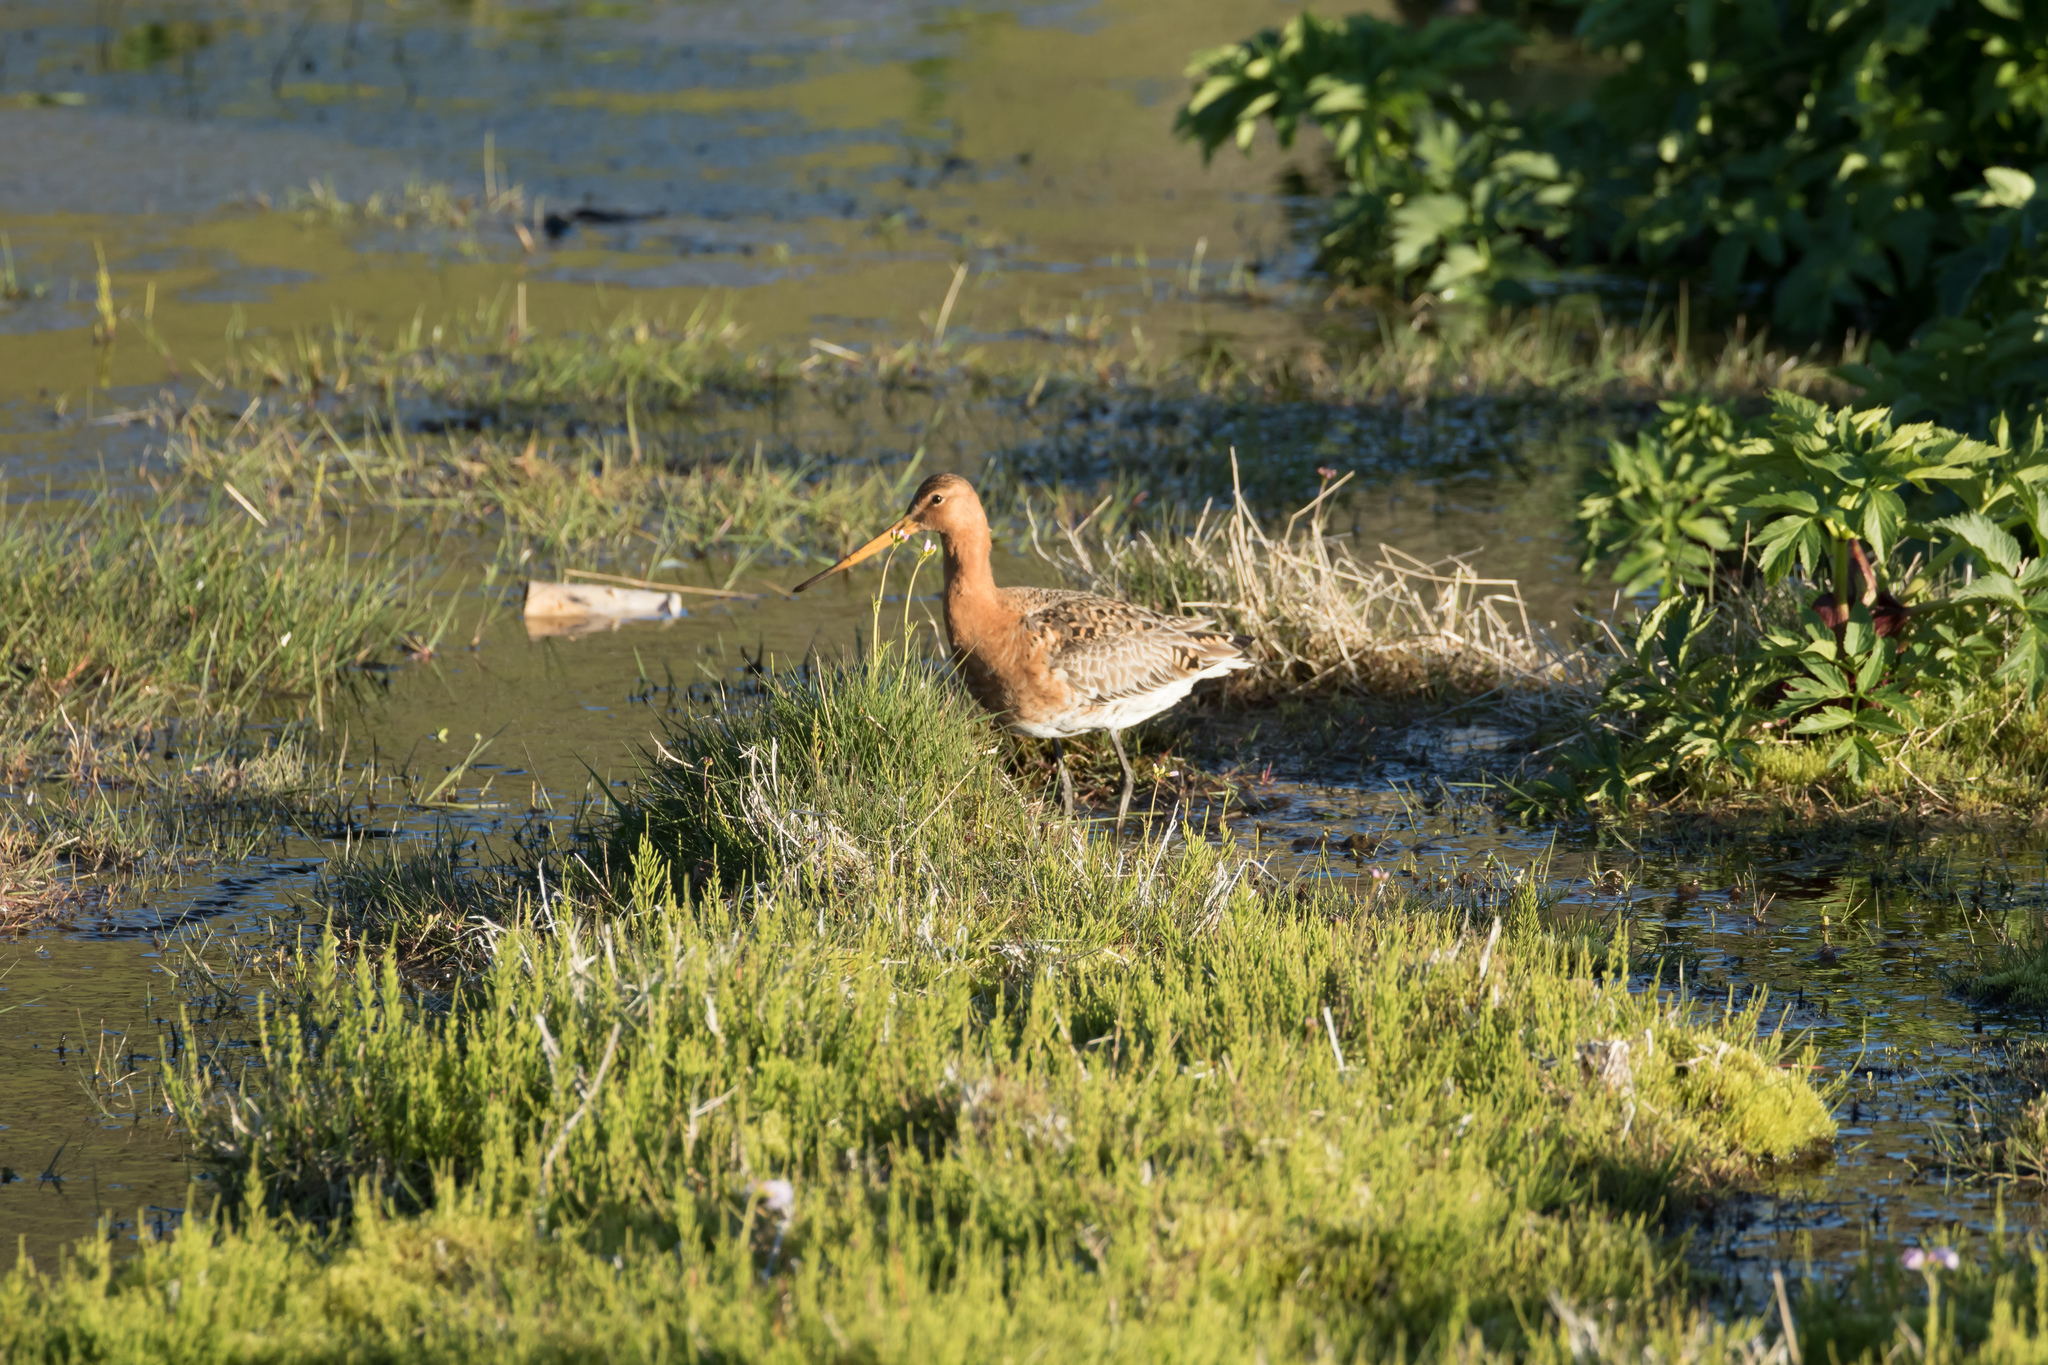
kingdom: Animalia
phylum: Chordata
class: Aves
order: Charadriiformes
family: Scolopacidae
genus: Limosa
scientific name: Limosa limosa
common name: Black-tailed godwit
